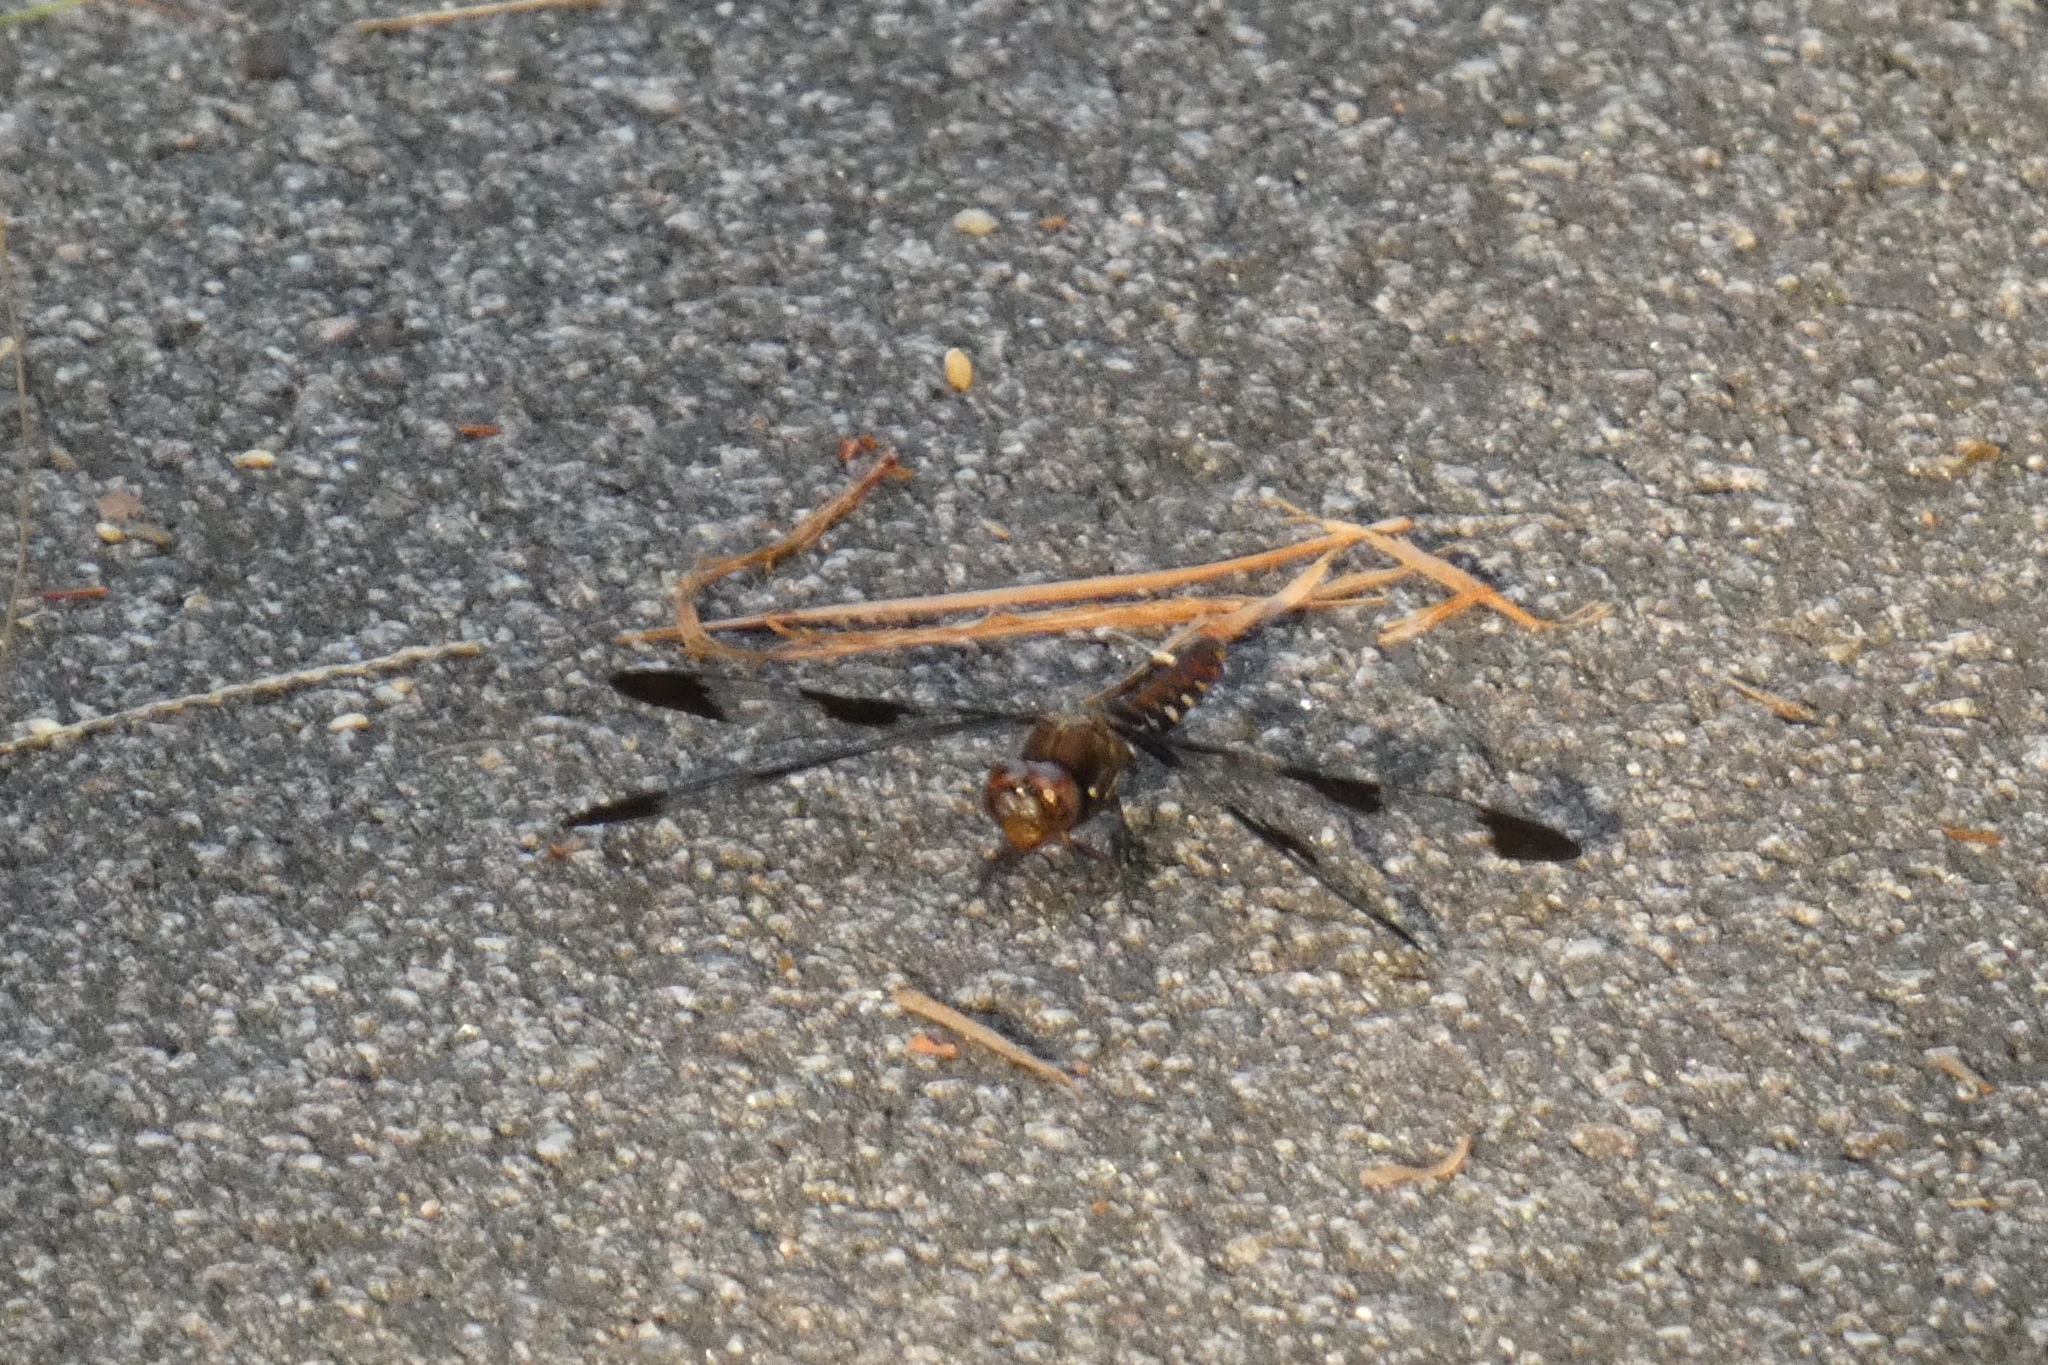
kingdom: Animalia
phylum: Arthropoda
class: Insecta
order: Odonata
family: Libellulidae
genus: Plathemis
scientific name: Plathemis lydia
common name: Common whitetail
